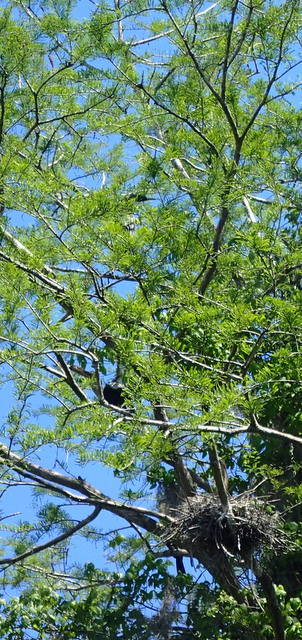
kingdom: Animalia
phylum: Chordata
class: Aves
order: Suliformes
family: Anhingidae
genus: Anhinga
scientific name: Anhinga anhinga
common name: Anhinga
